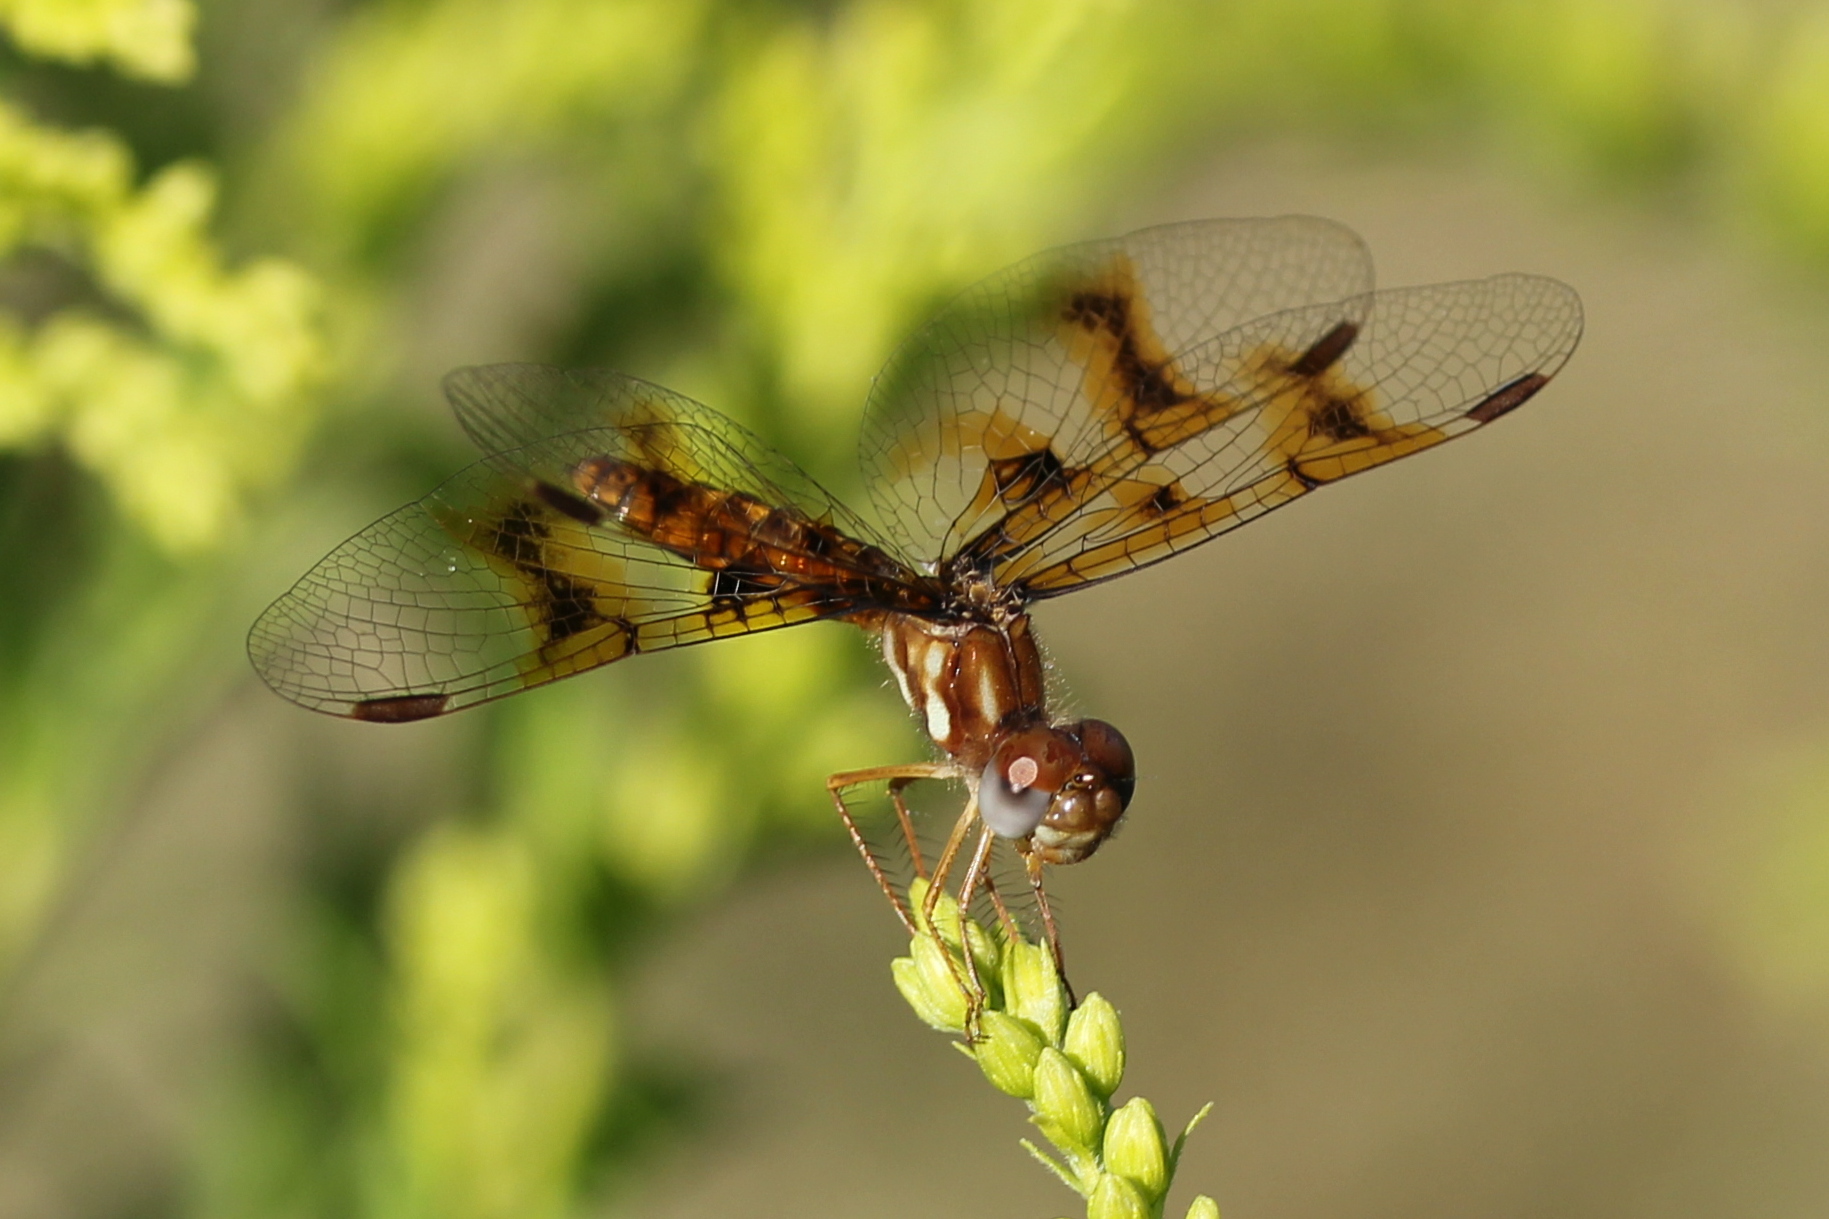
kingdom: Animalia
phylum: Arthropoda
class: Insecta
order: Odonata
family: Libellulidae
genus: Perithemis
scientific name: Perithemis tenera
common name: Eastern amberwing
